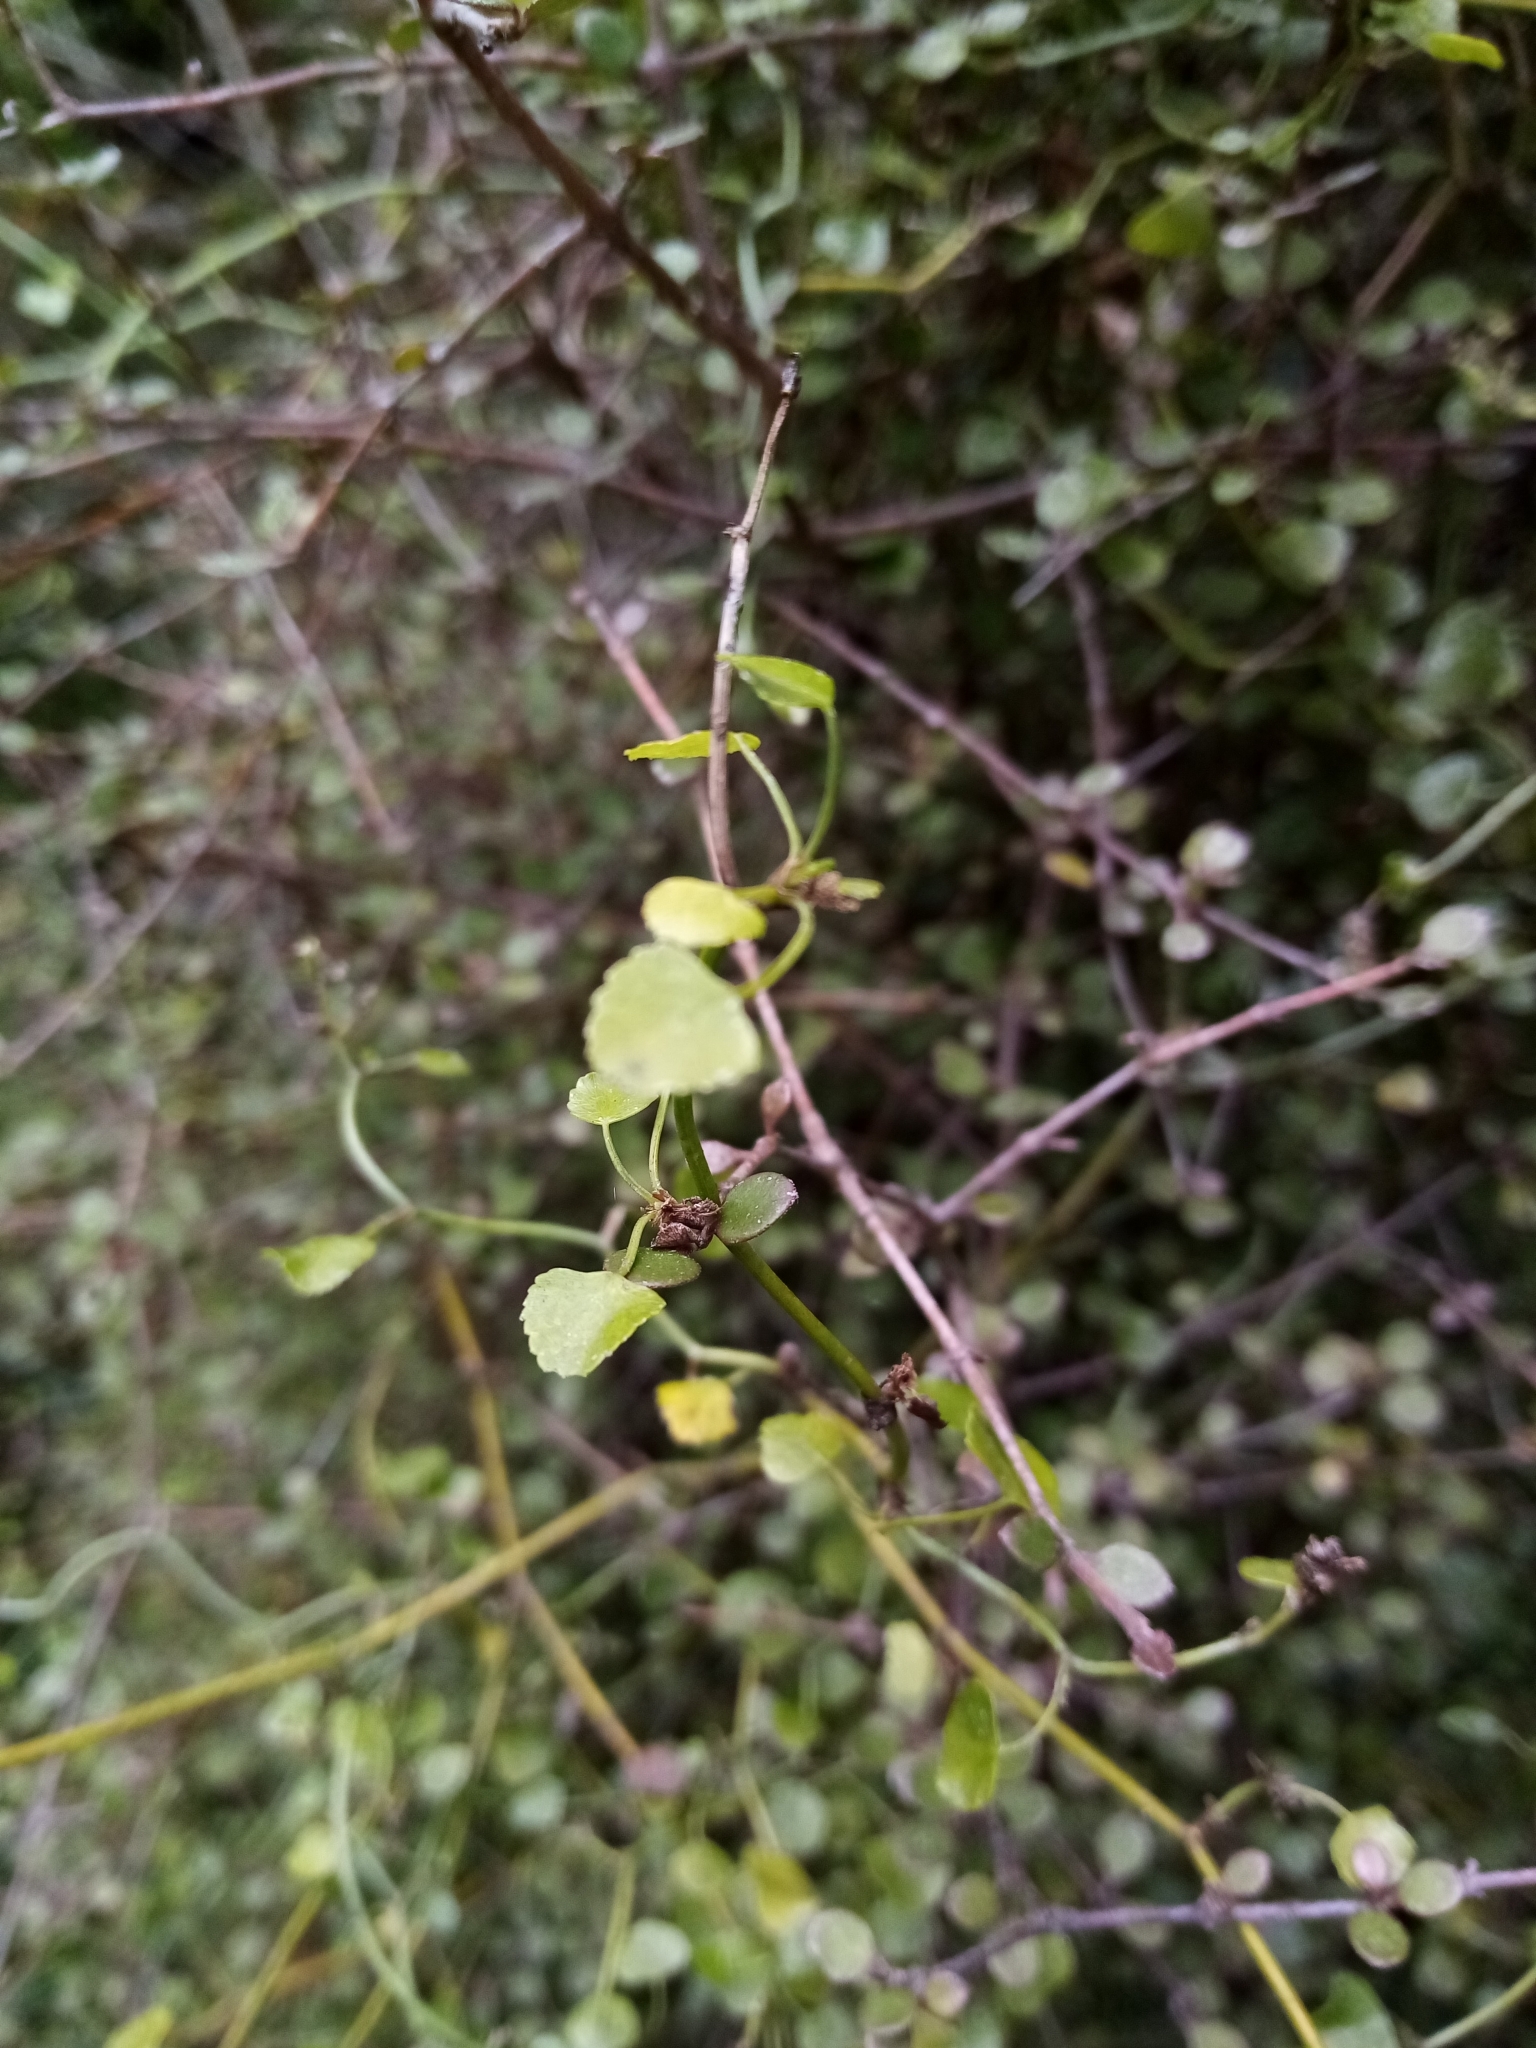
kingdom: Plantae
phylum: Tracheophyta
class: Magnoliopsida
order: Apiales
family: Apiaceae
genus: Scandia
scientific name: Scandia geniculata
